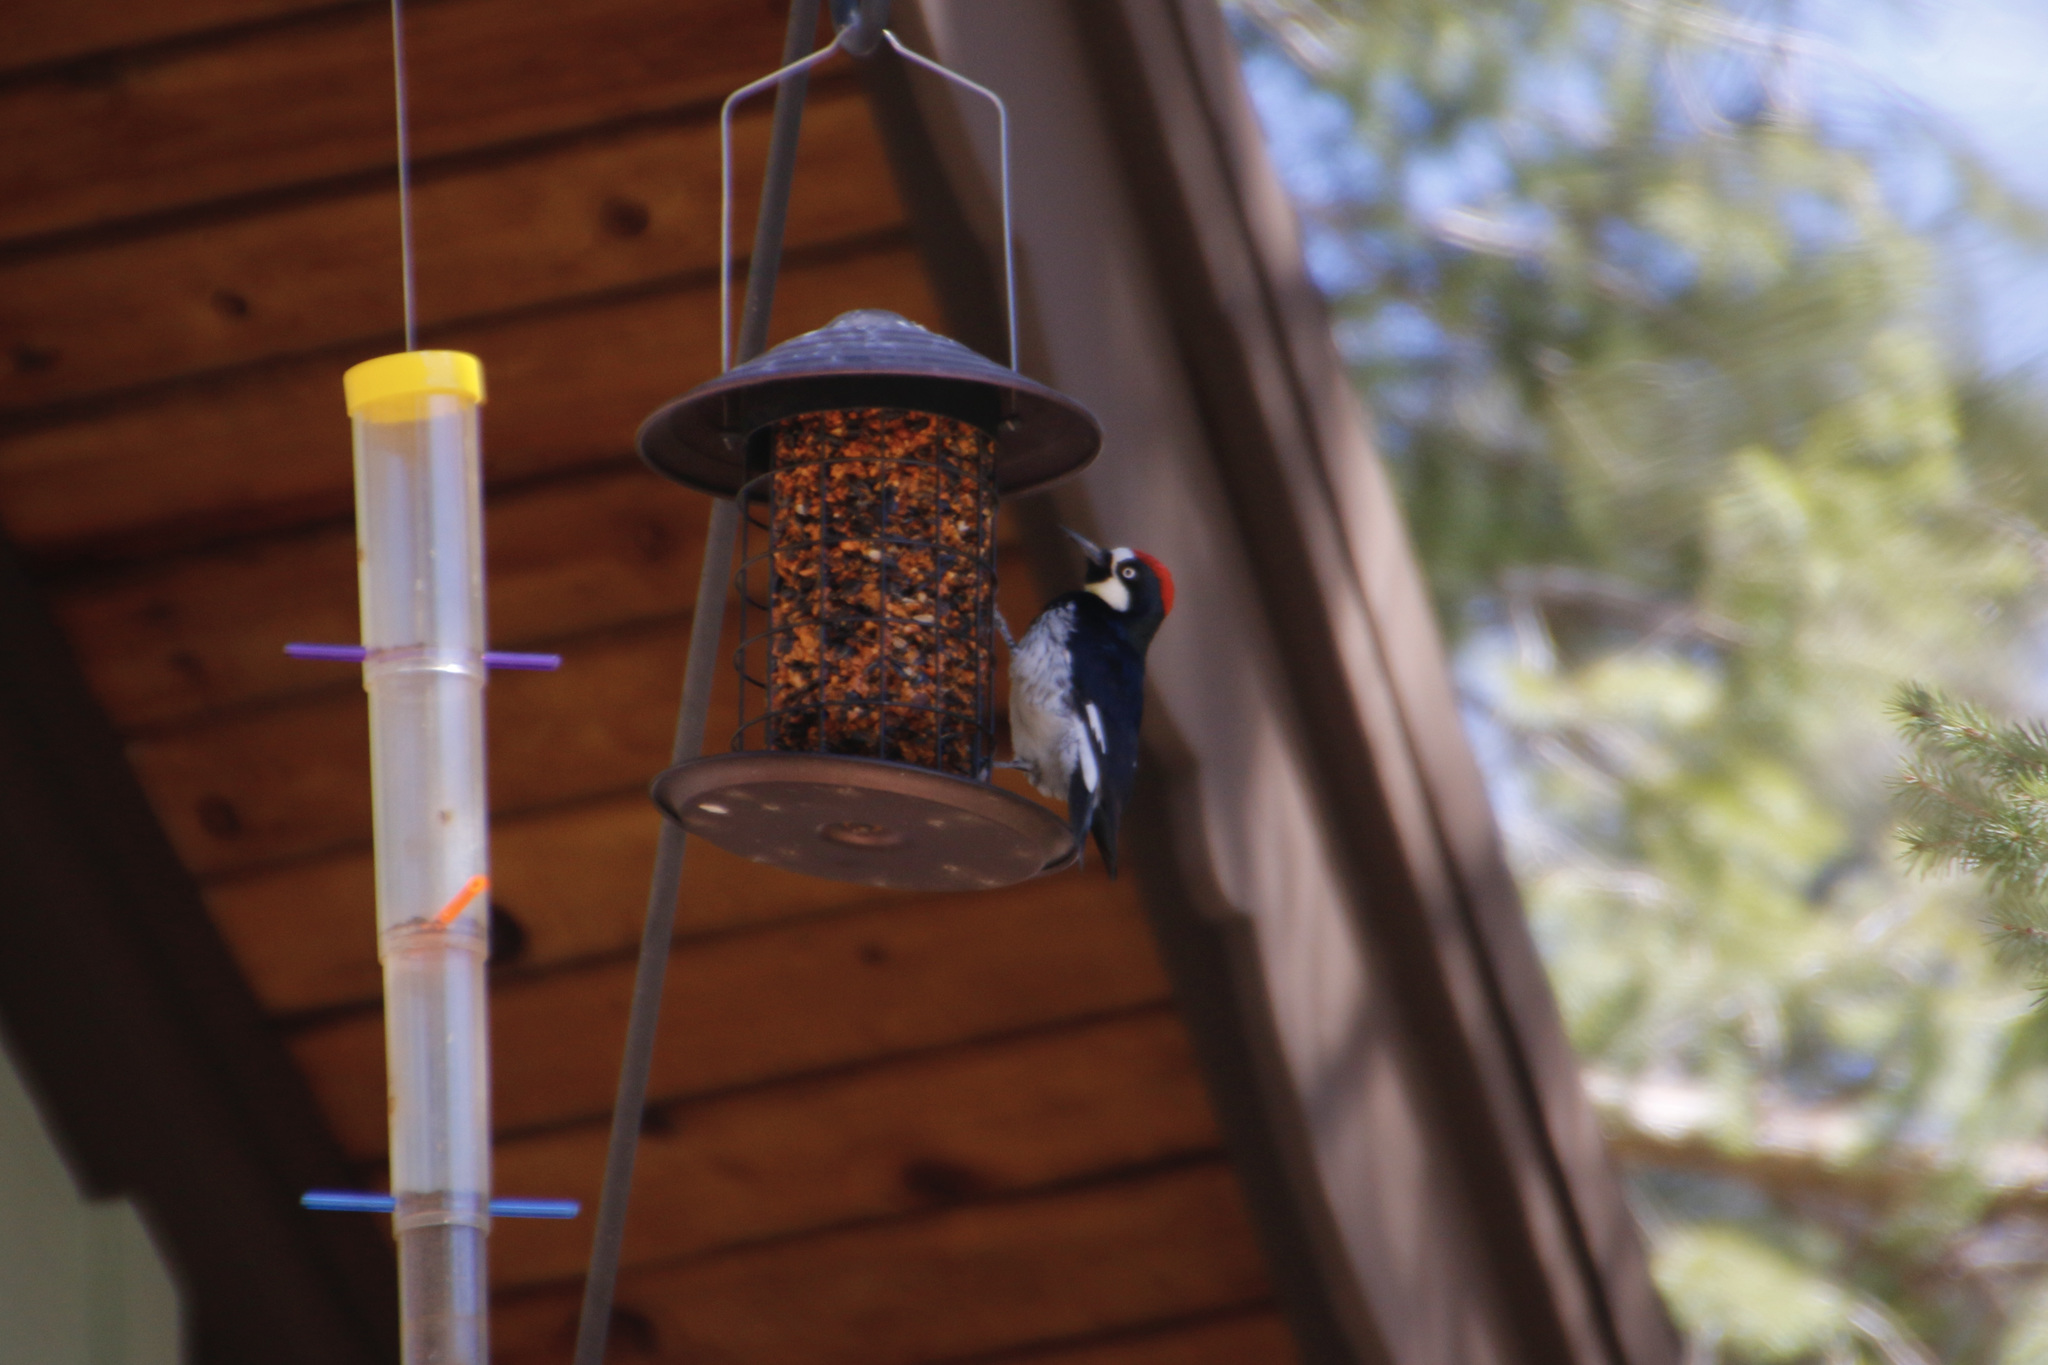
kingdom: Animalia
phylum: Chordata
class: Aves
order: Piciformes
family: Picidae
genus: Melanerpes
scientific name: Melanerpes formicivorus
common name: Acorn woodpecker
